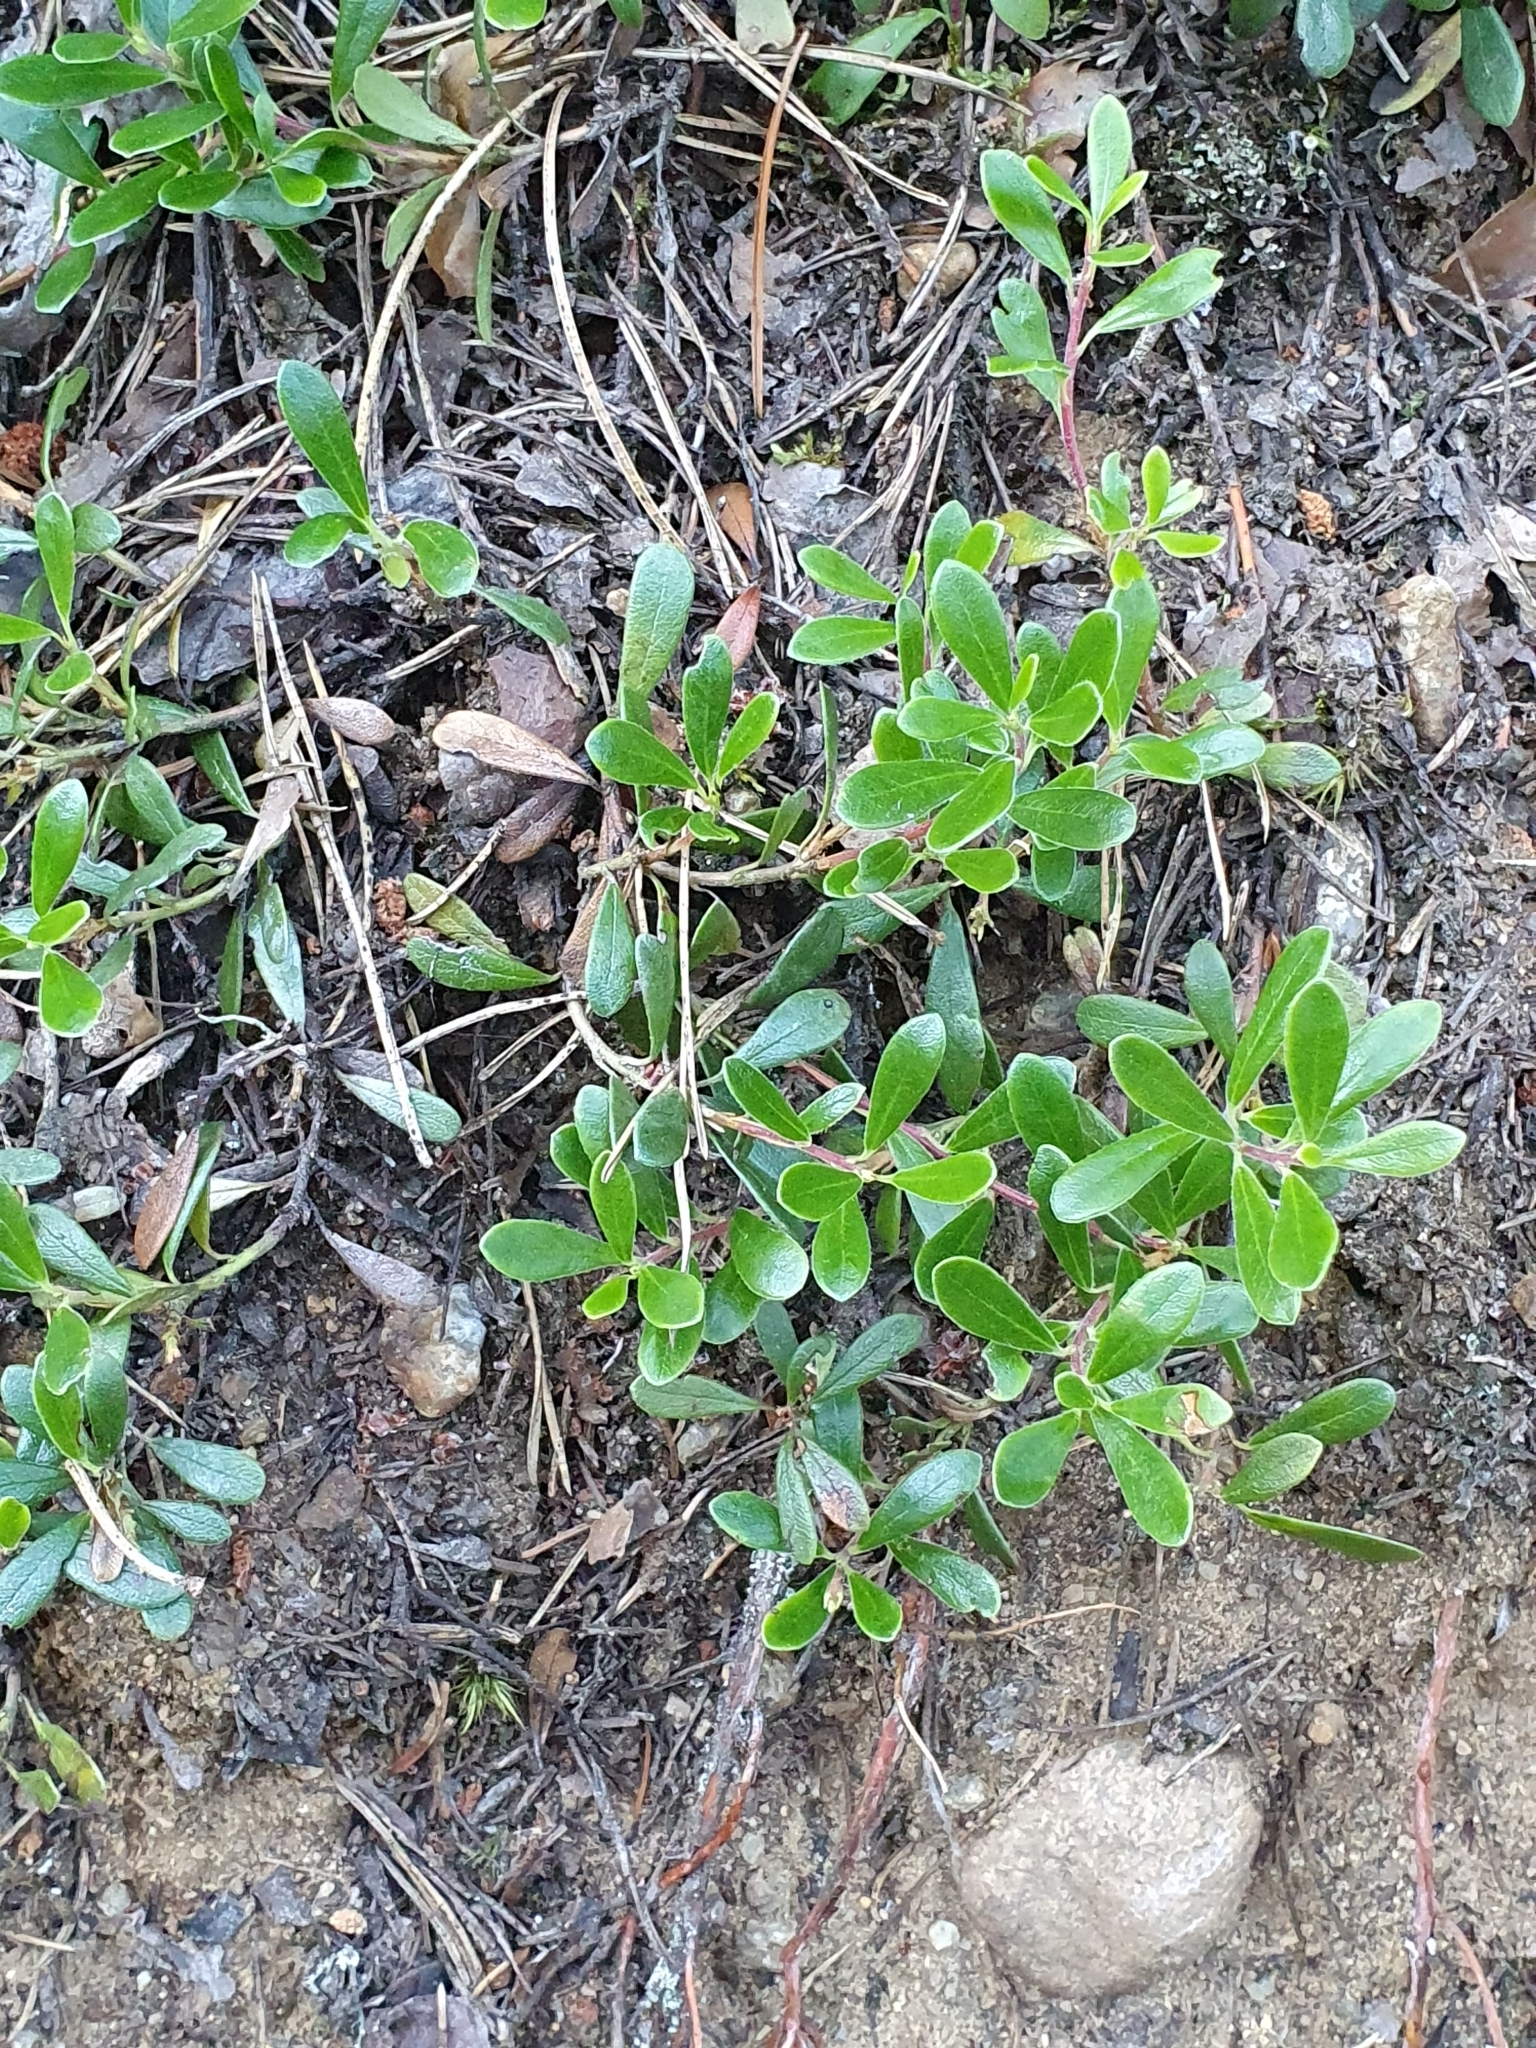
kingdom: Plantae
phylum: Tracheophyta
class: Magnoliopsida
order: Ericales
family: Ericaceae
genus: Arctostaphylos
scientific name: Arctostaphylos uva-ursi
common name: Bearberry
